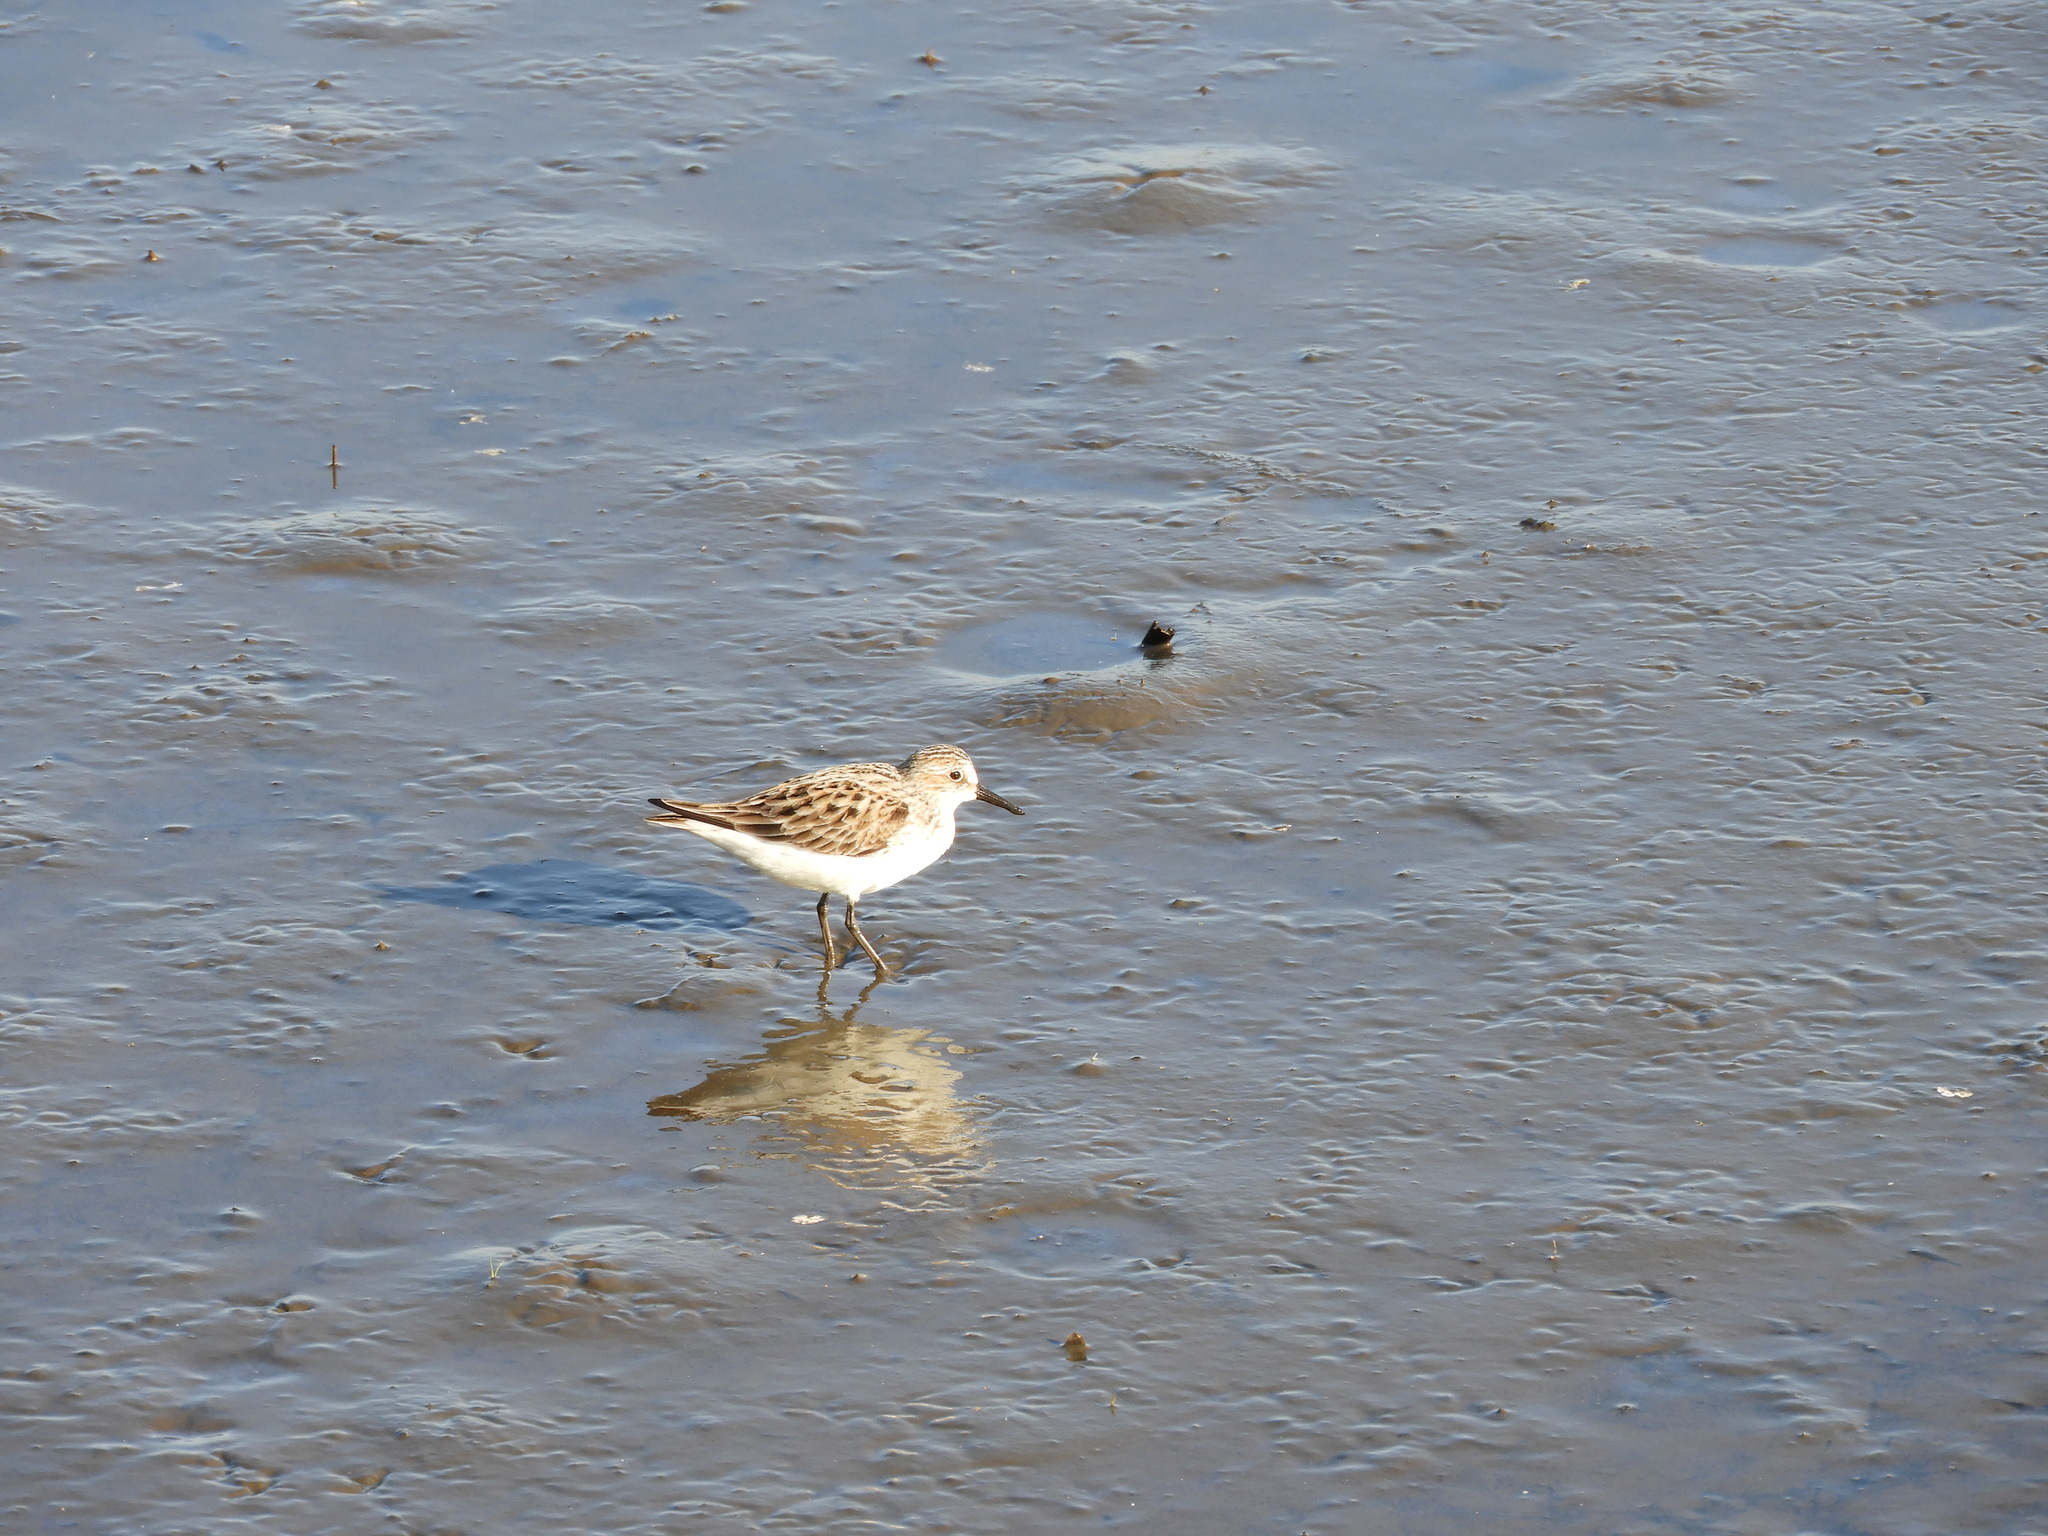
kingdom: Animalia
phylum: Chordata
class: Aves
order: Charadriiformes
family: Scolopacidae
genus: Calidris
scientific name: Calidris pusilla
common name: Semipalmated sandpiper
